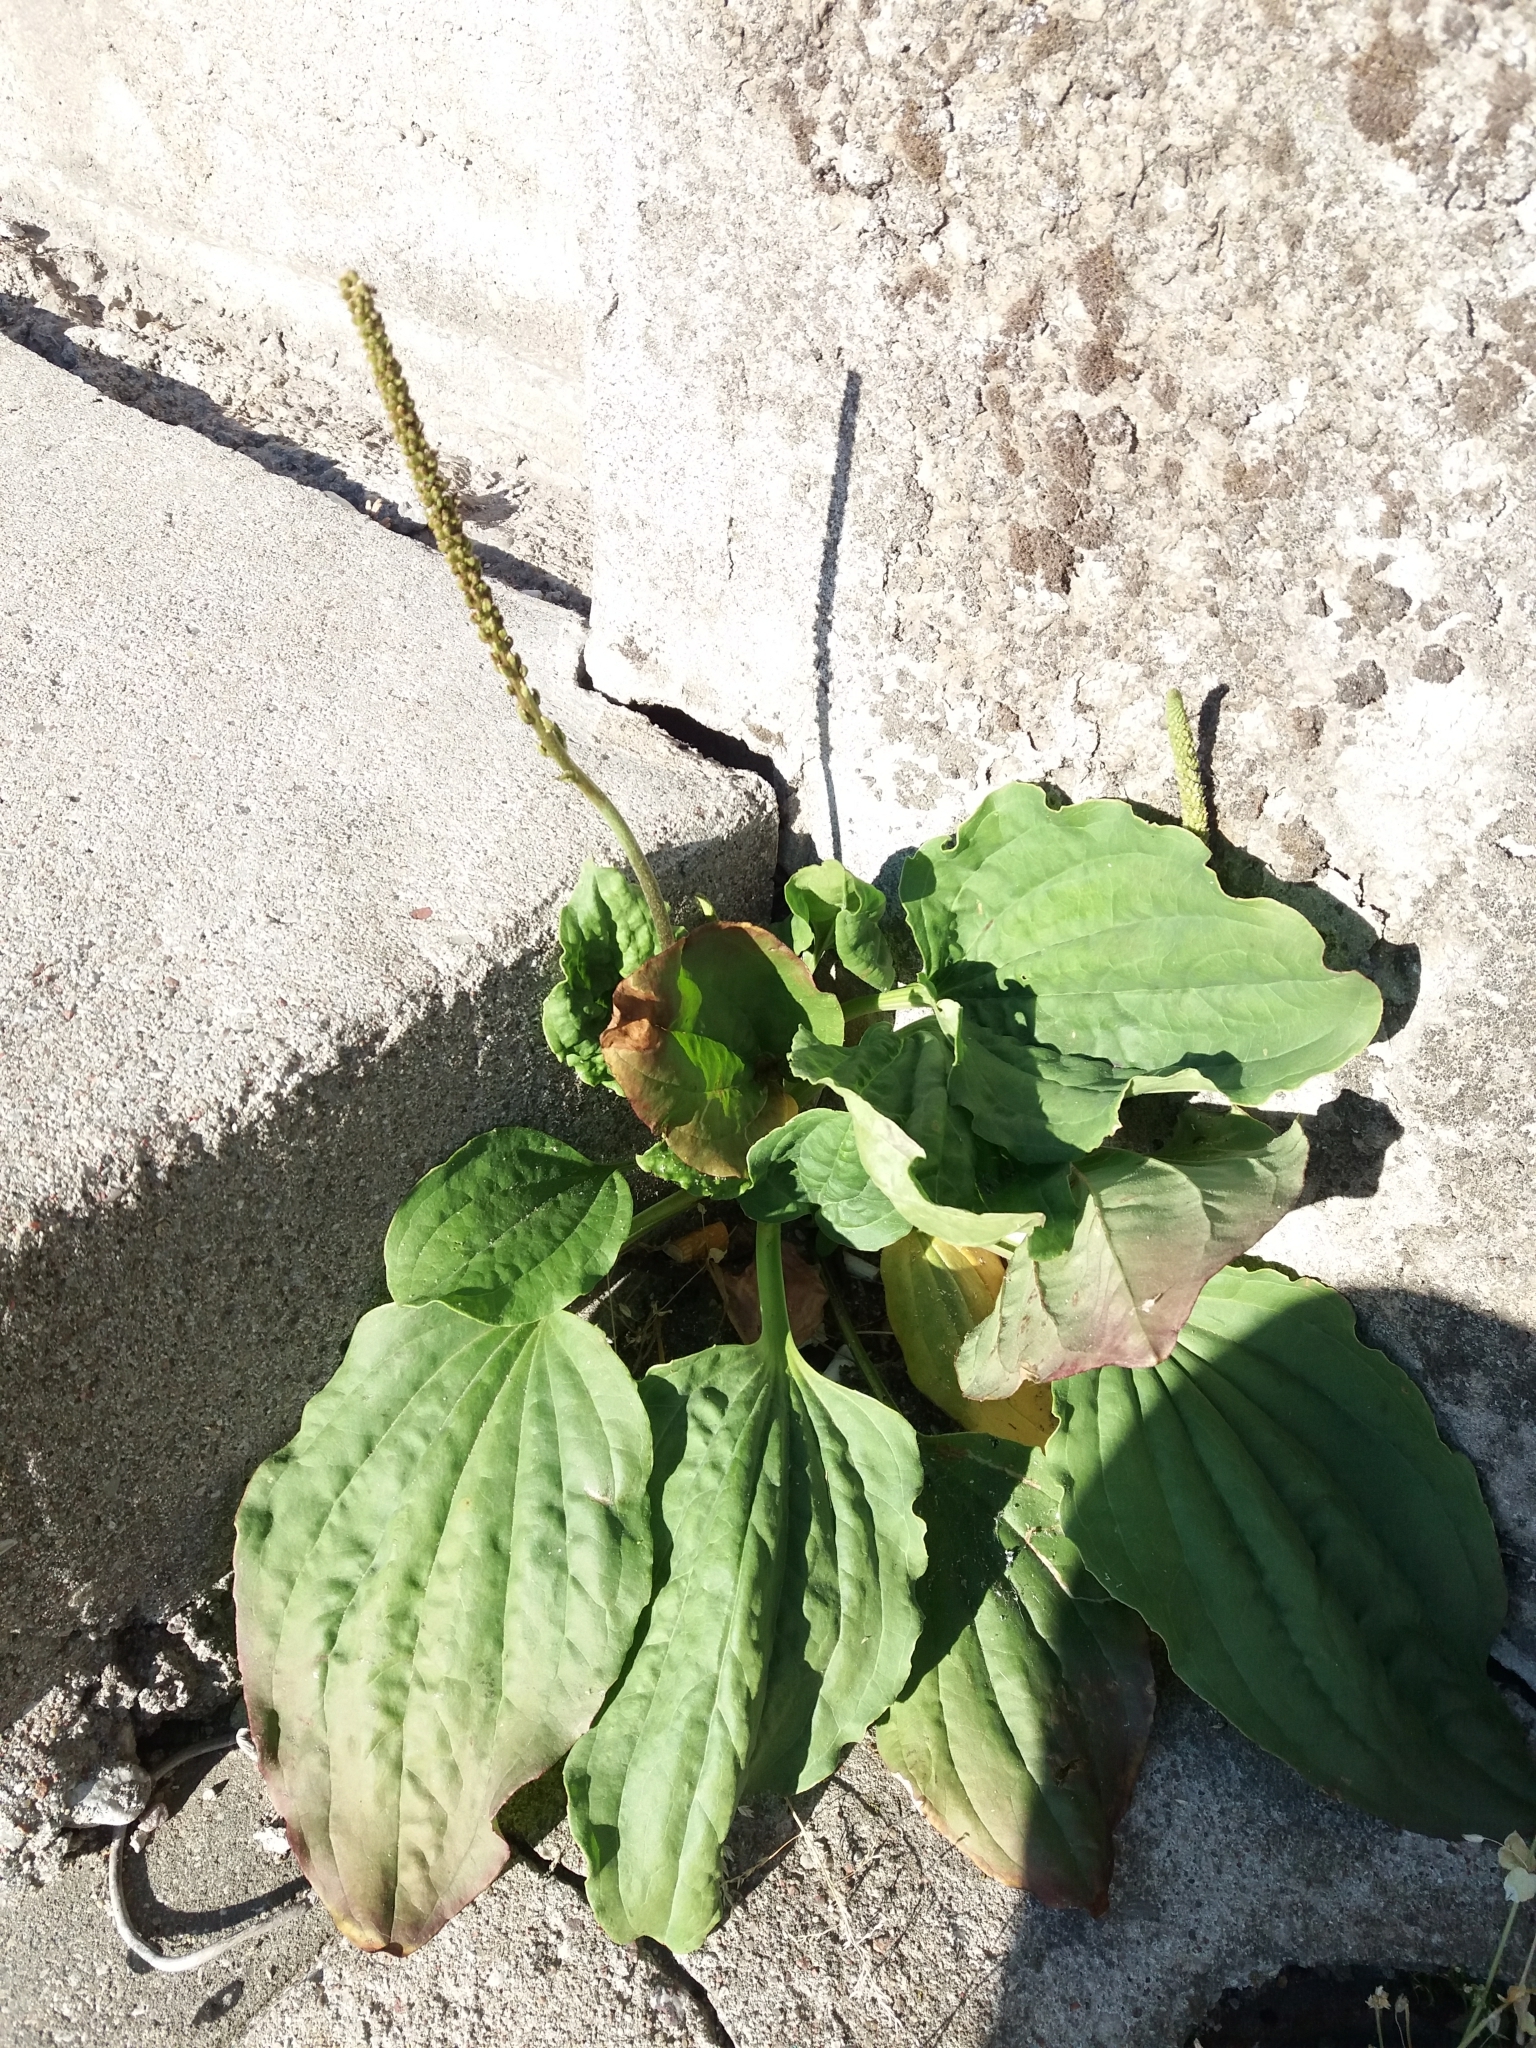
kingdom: Plantae
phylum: Tracheophyta
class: Magnoliopsida
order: Lamiales
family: Plantaginaceae
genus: Plantago
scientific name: Plantago major
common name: Common plantain
